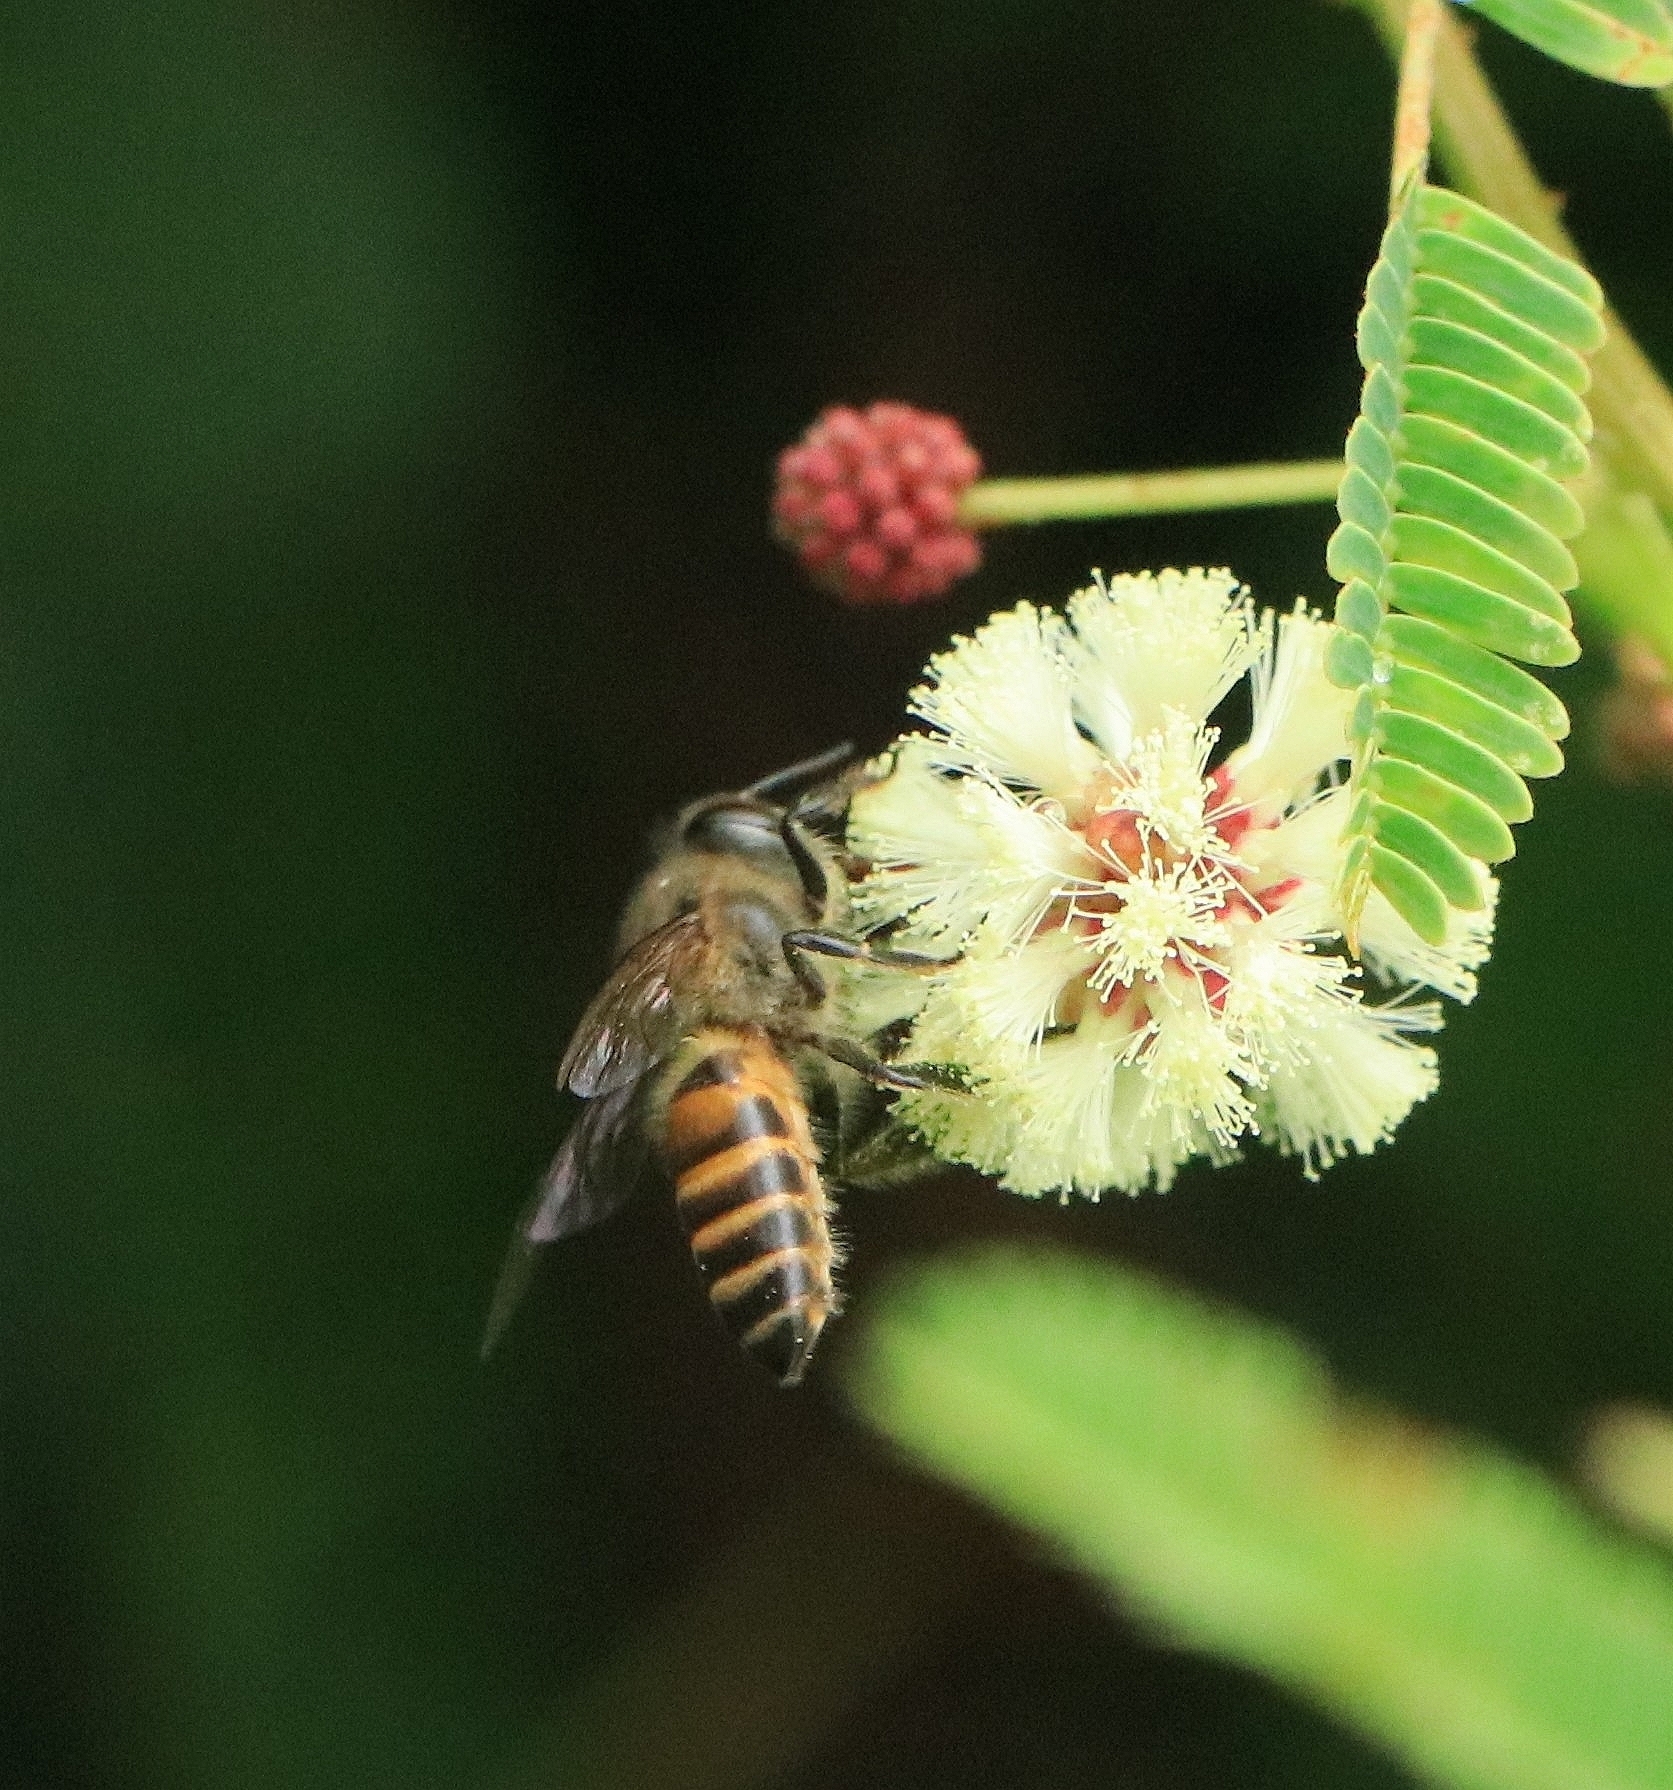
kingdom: Animalia
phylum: Arthropoda
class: Insecta
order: Hymenoptera
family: Apidae
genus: Apis
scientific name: Apis cerana
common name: Honey bee
